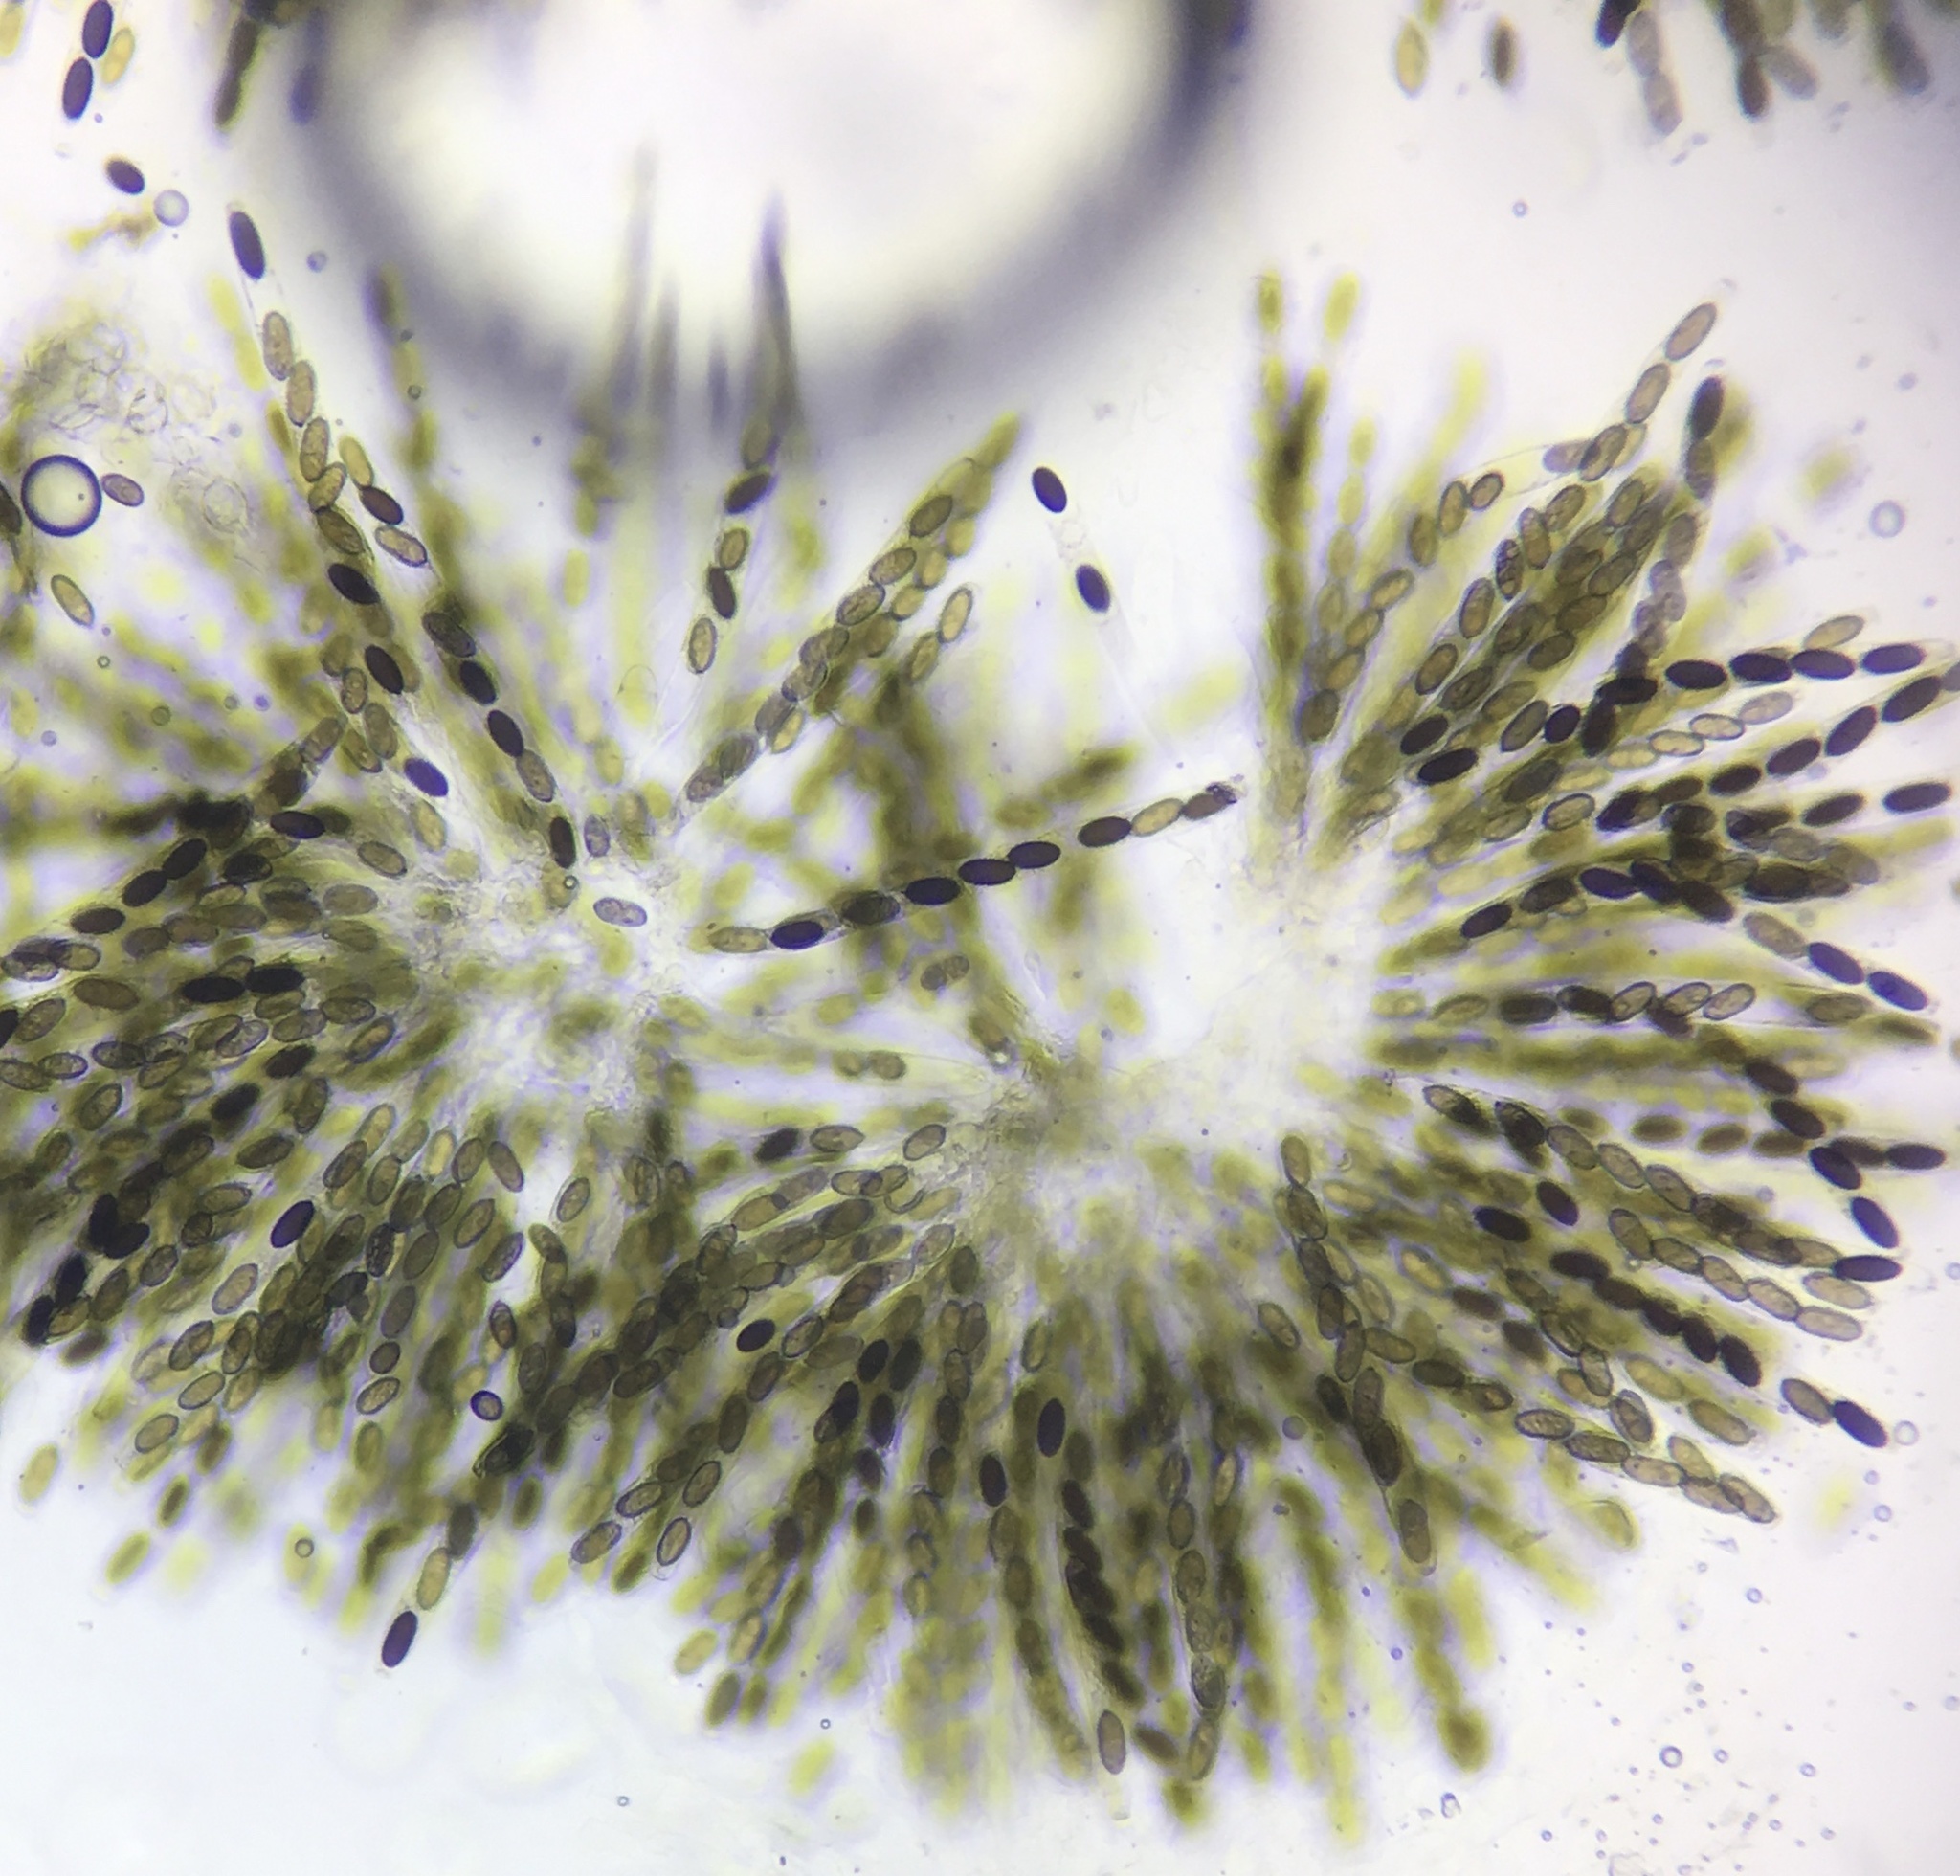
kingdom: Fungi
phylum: Ascomycota
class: Sordariomycetes
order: Sordariales
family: Sordariaceae
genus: Sordaria
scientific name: Sordaria alcina
